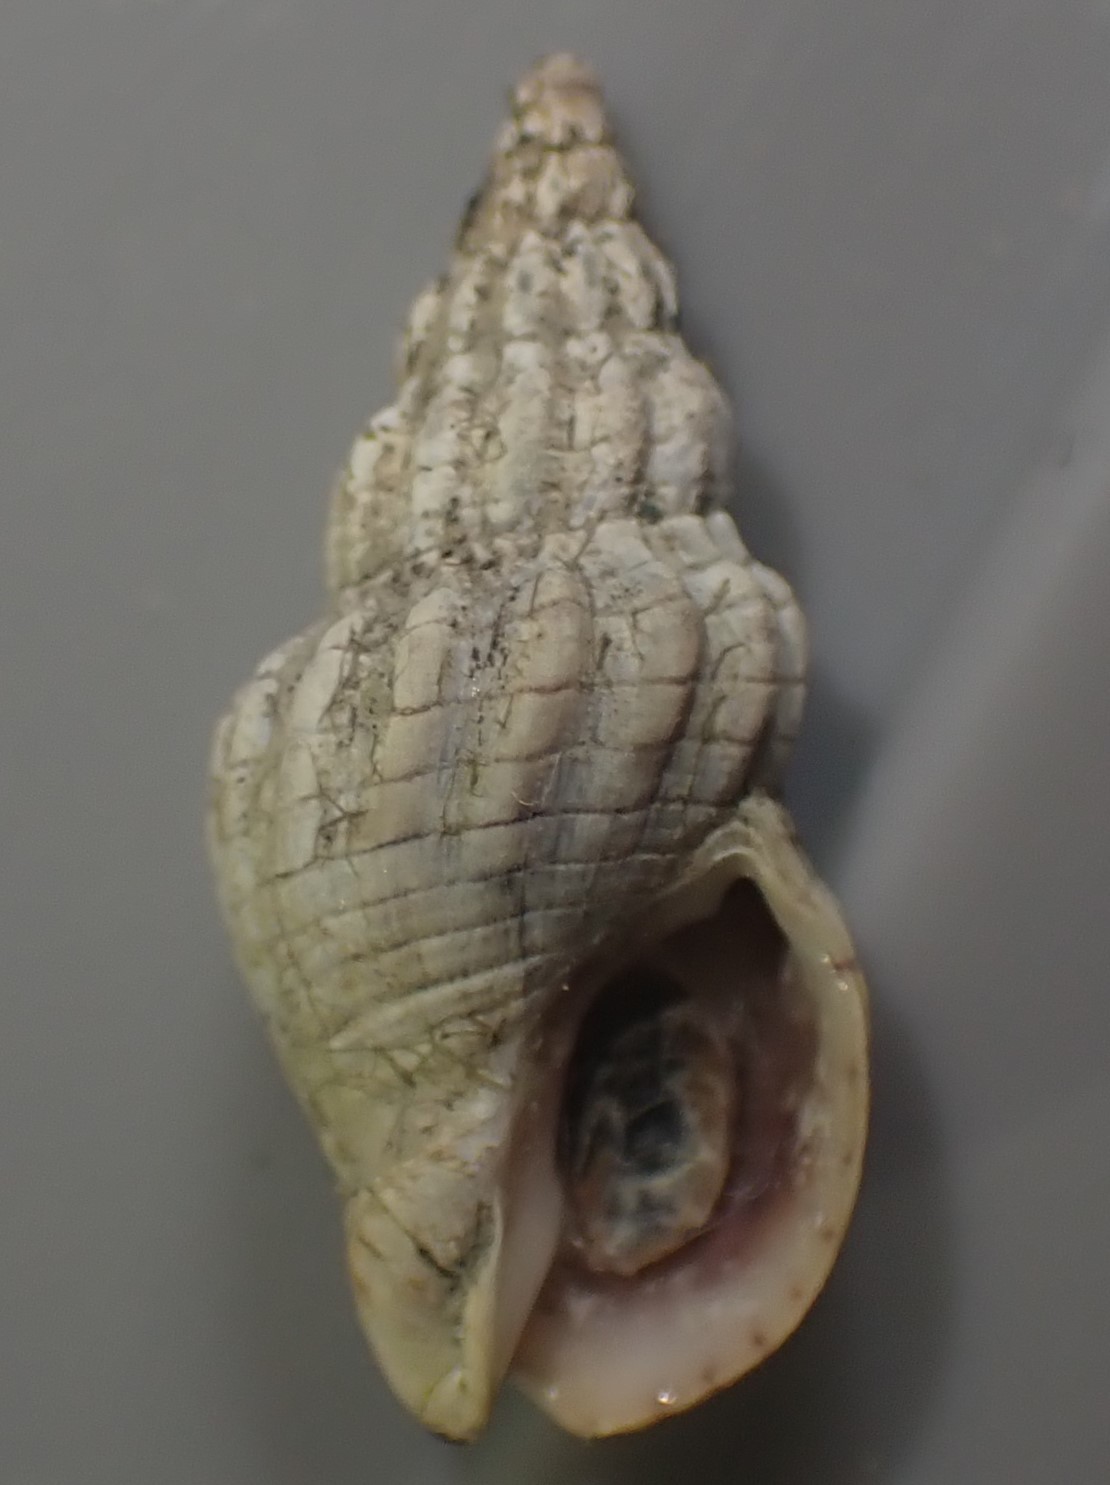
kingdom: Animalia
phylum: Mollusca
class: Gastropoda
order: Neogastropoda
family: Cominellidae
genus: Cominella
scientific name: Cominella quoyana
